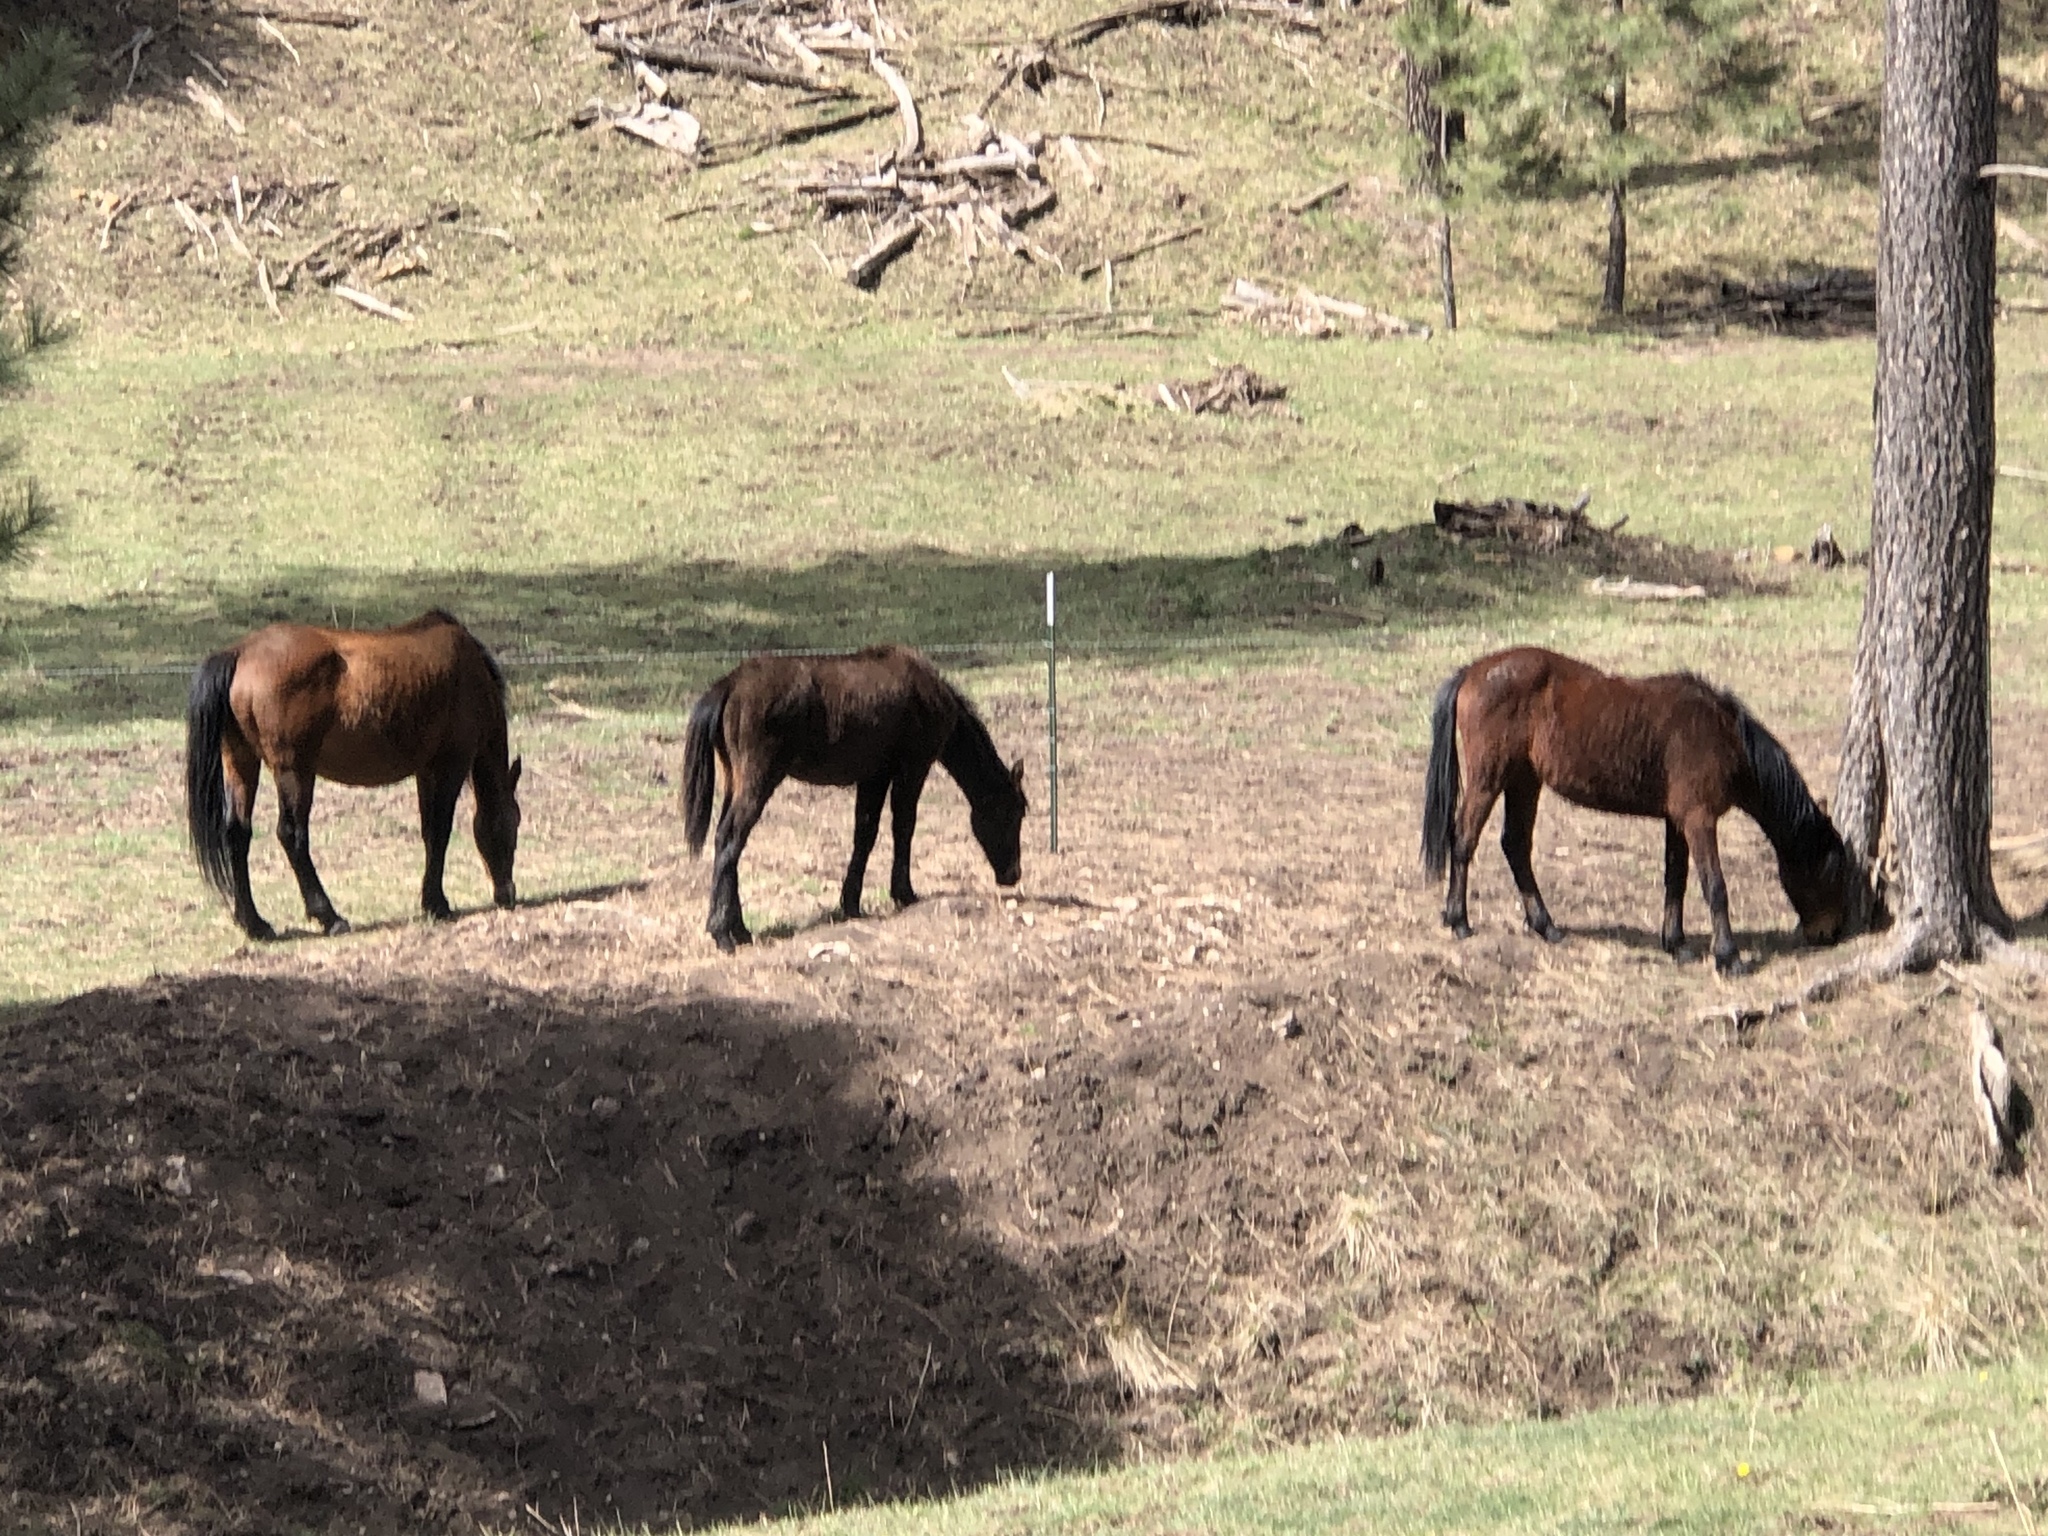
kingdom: Animalia
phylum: Chordata
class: Mammalia
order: Perissodactyla
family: Equidae
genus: Equus
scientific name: Equus caballus
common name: Horse
